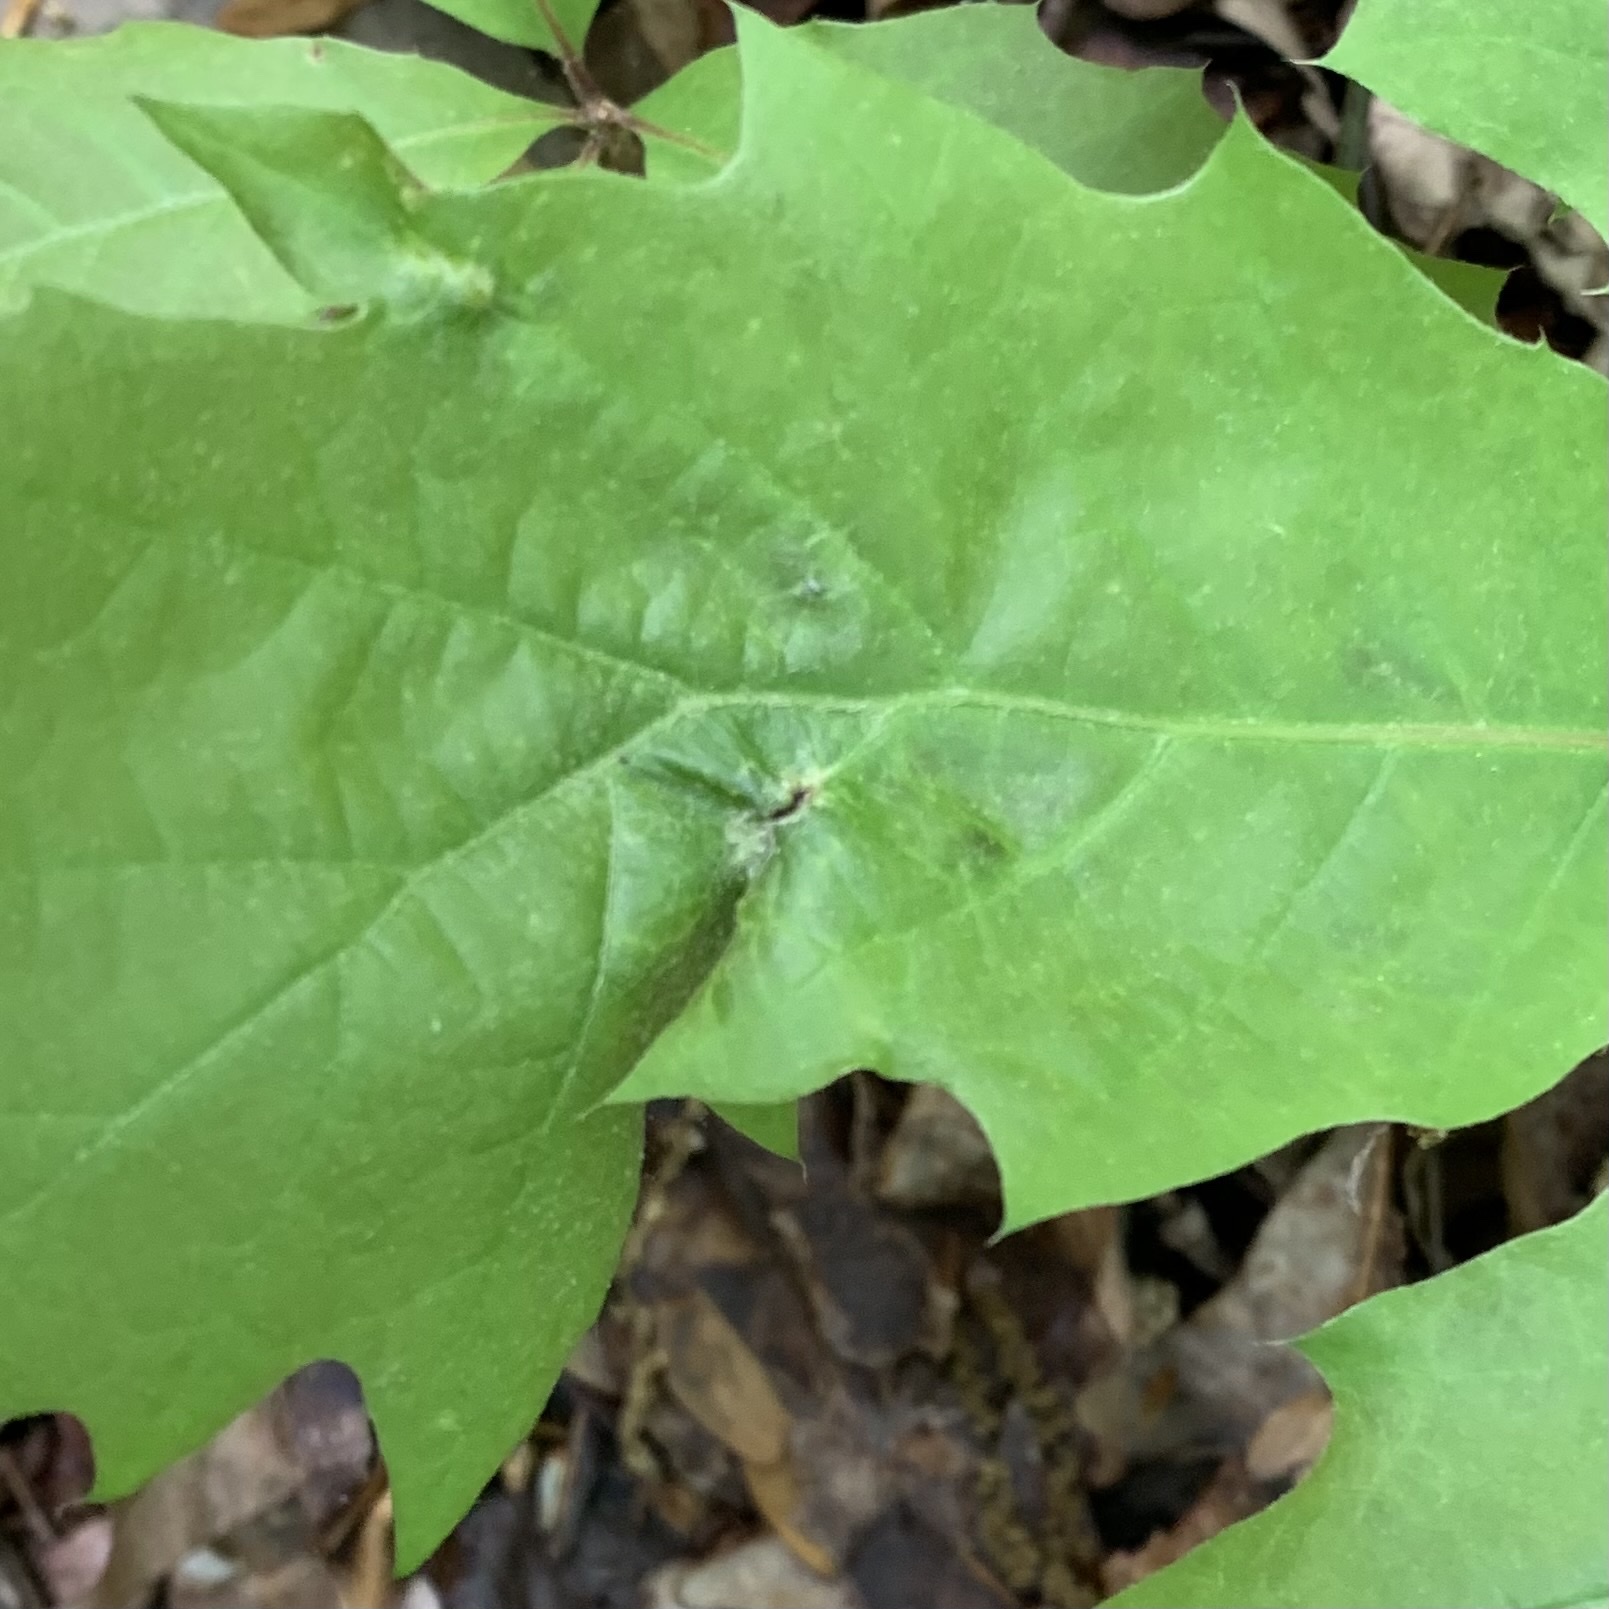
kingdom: Animalia
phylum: Arthropoda
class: Insecta
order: Diptera
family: Cecidomyiidae
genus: Macrodiplosis
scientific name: Macrodiplosis niveipila
